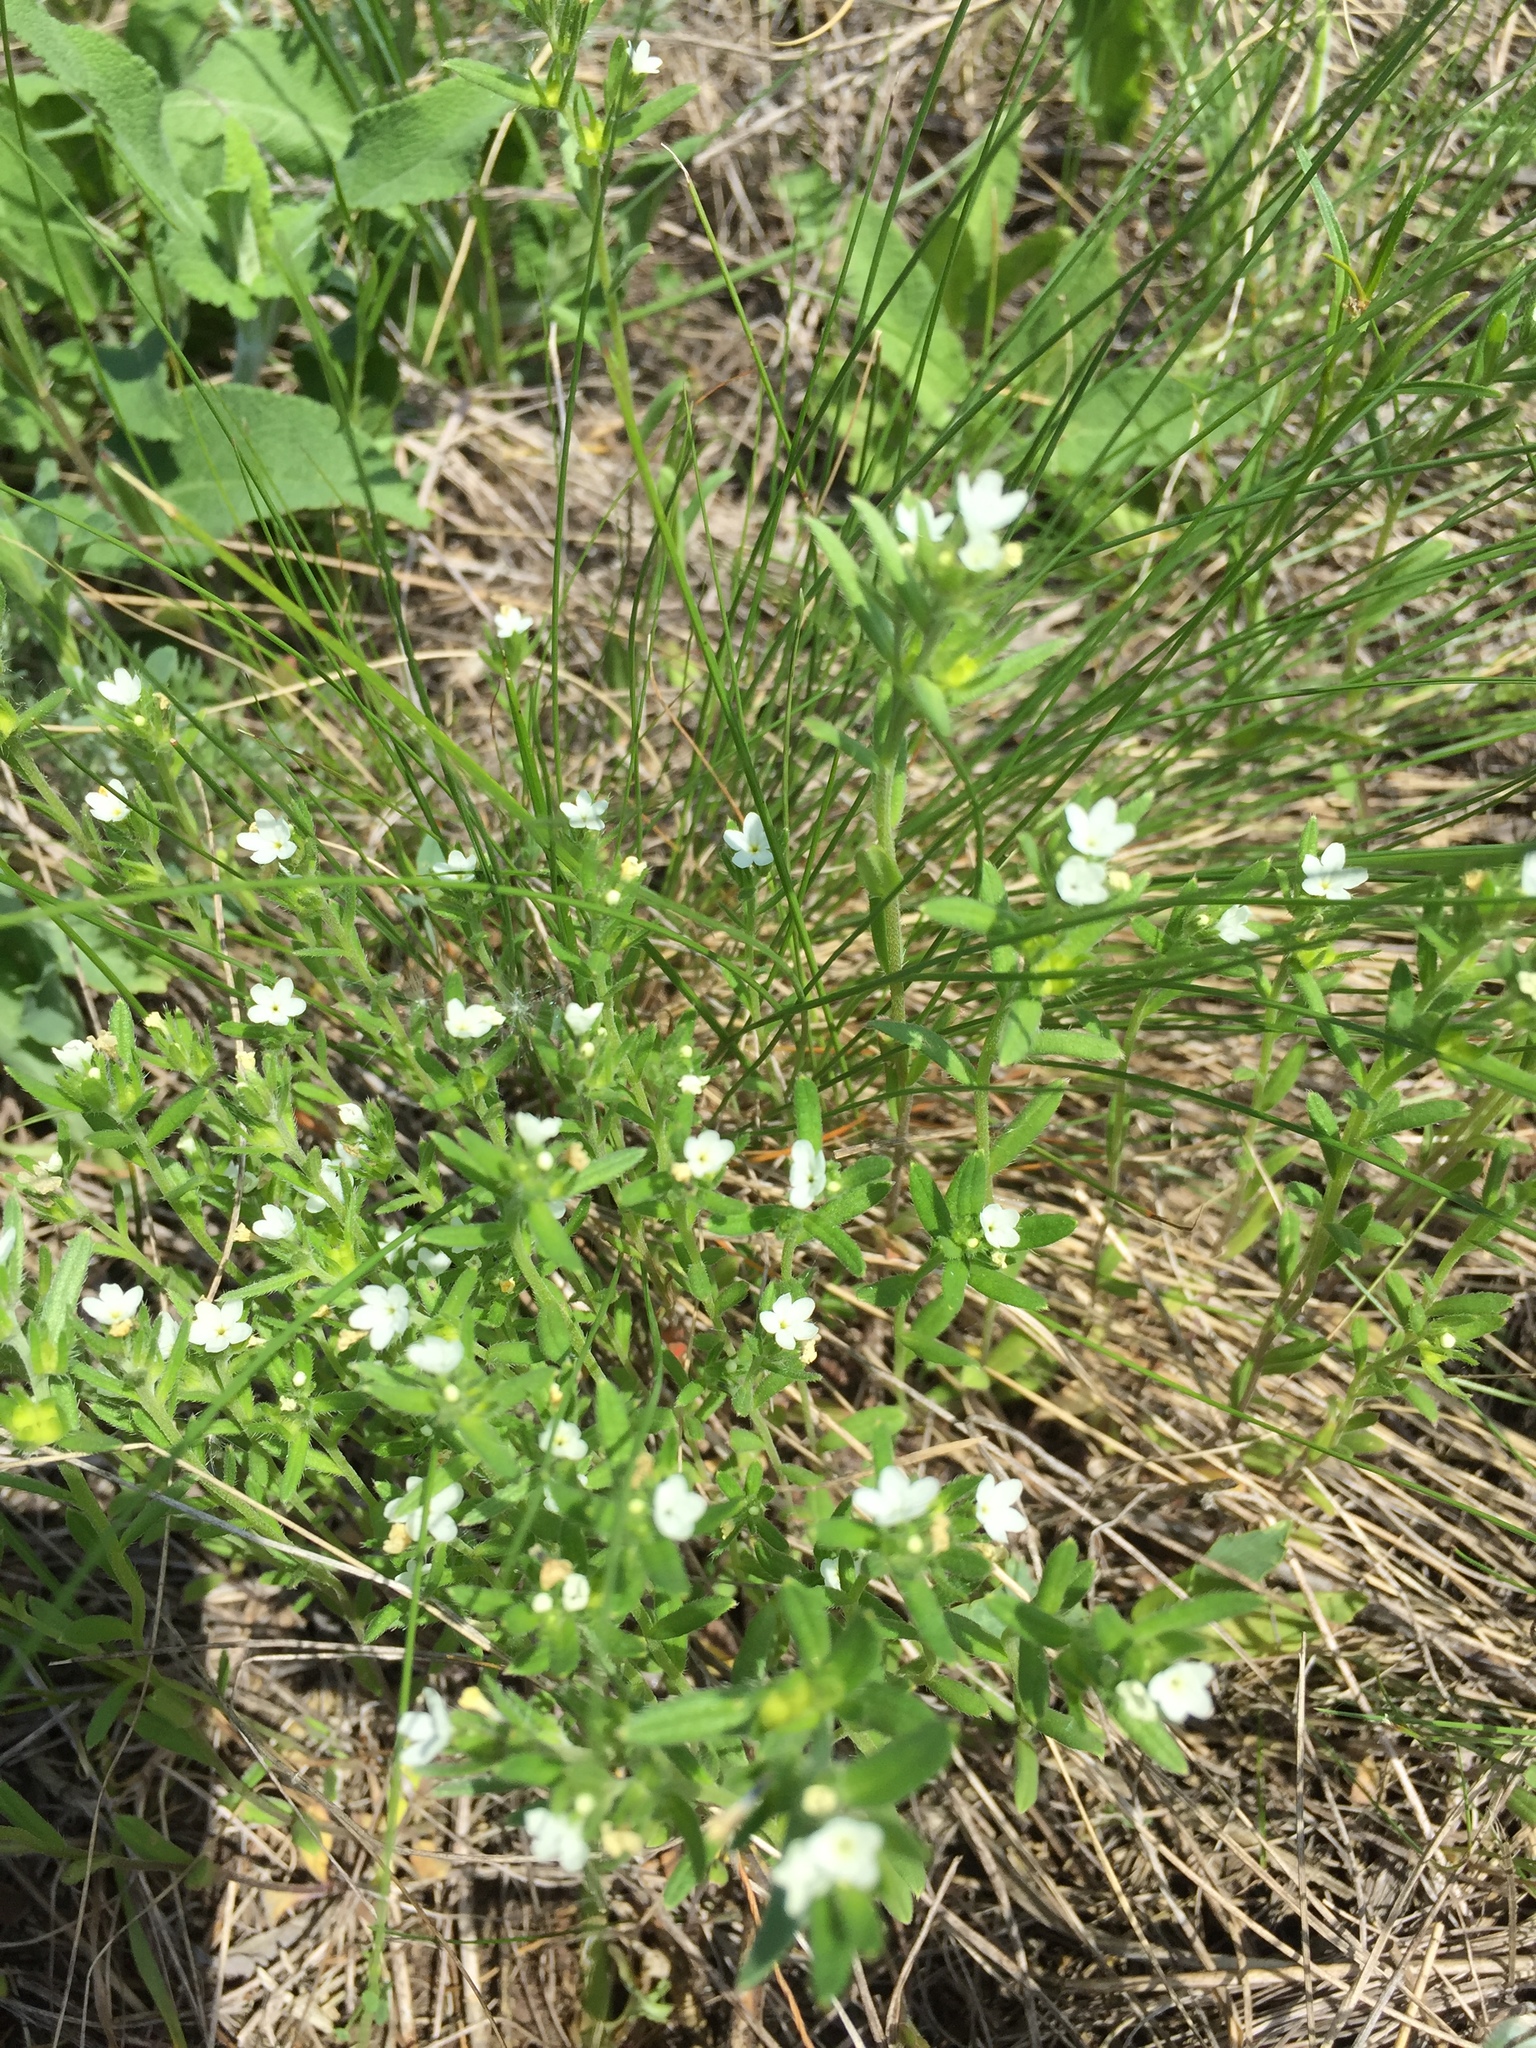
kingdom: Plantae
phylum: Tracheophyta
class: Magnoliopsida
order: Boraginales
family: Boraginaceae
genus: Buglossoides
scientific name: Buglossoides arvensis
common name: Corn gromwell
